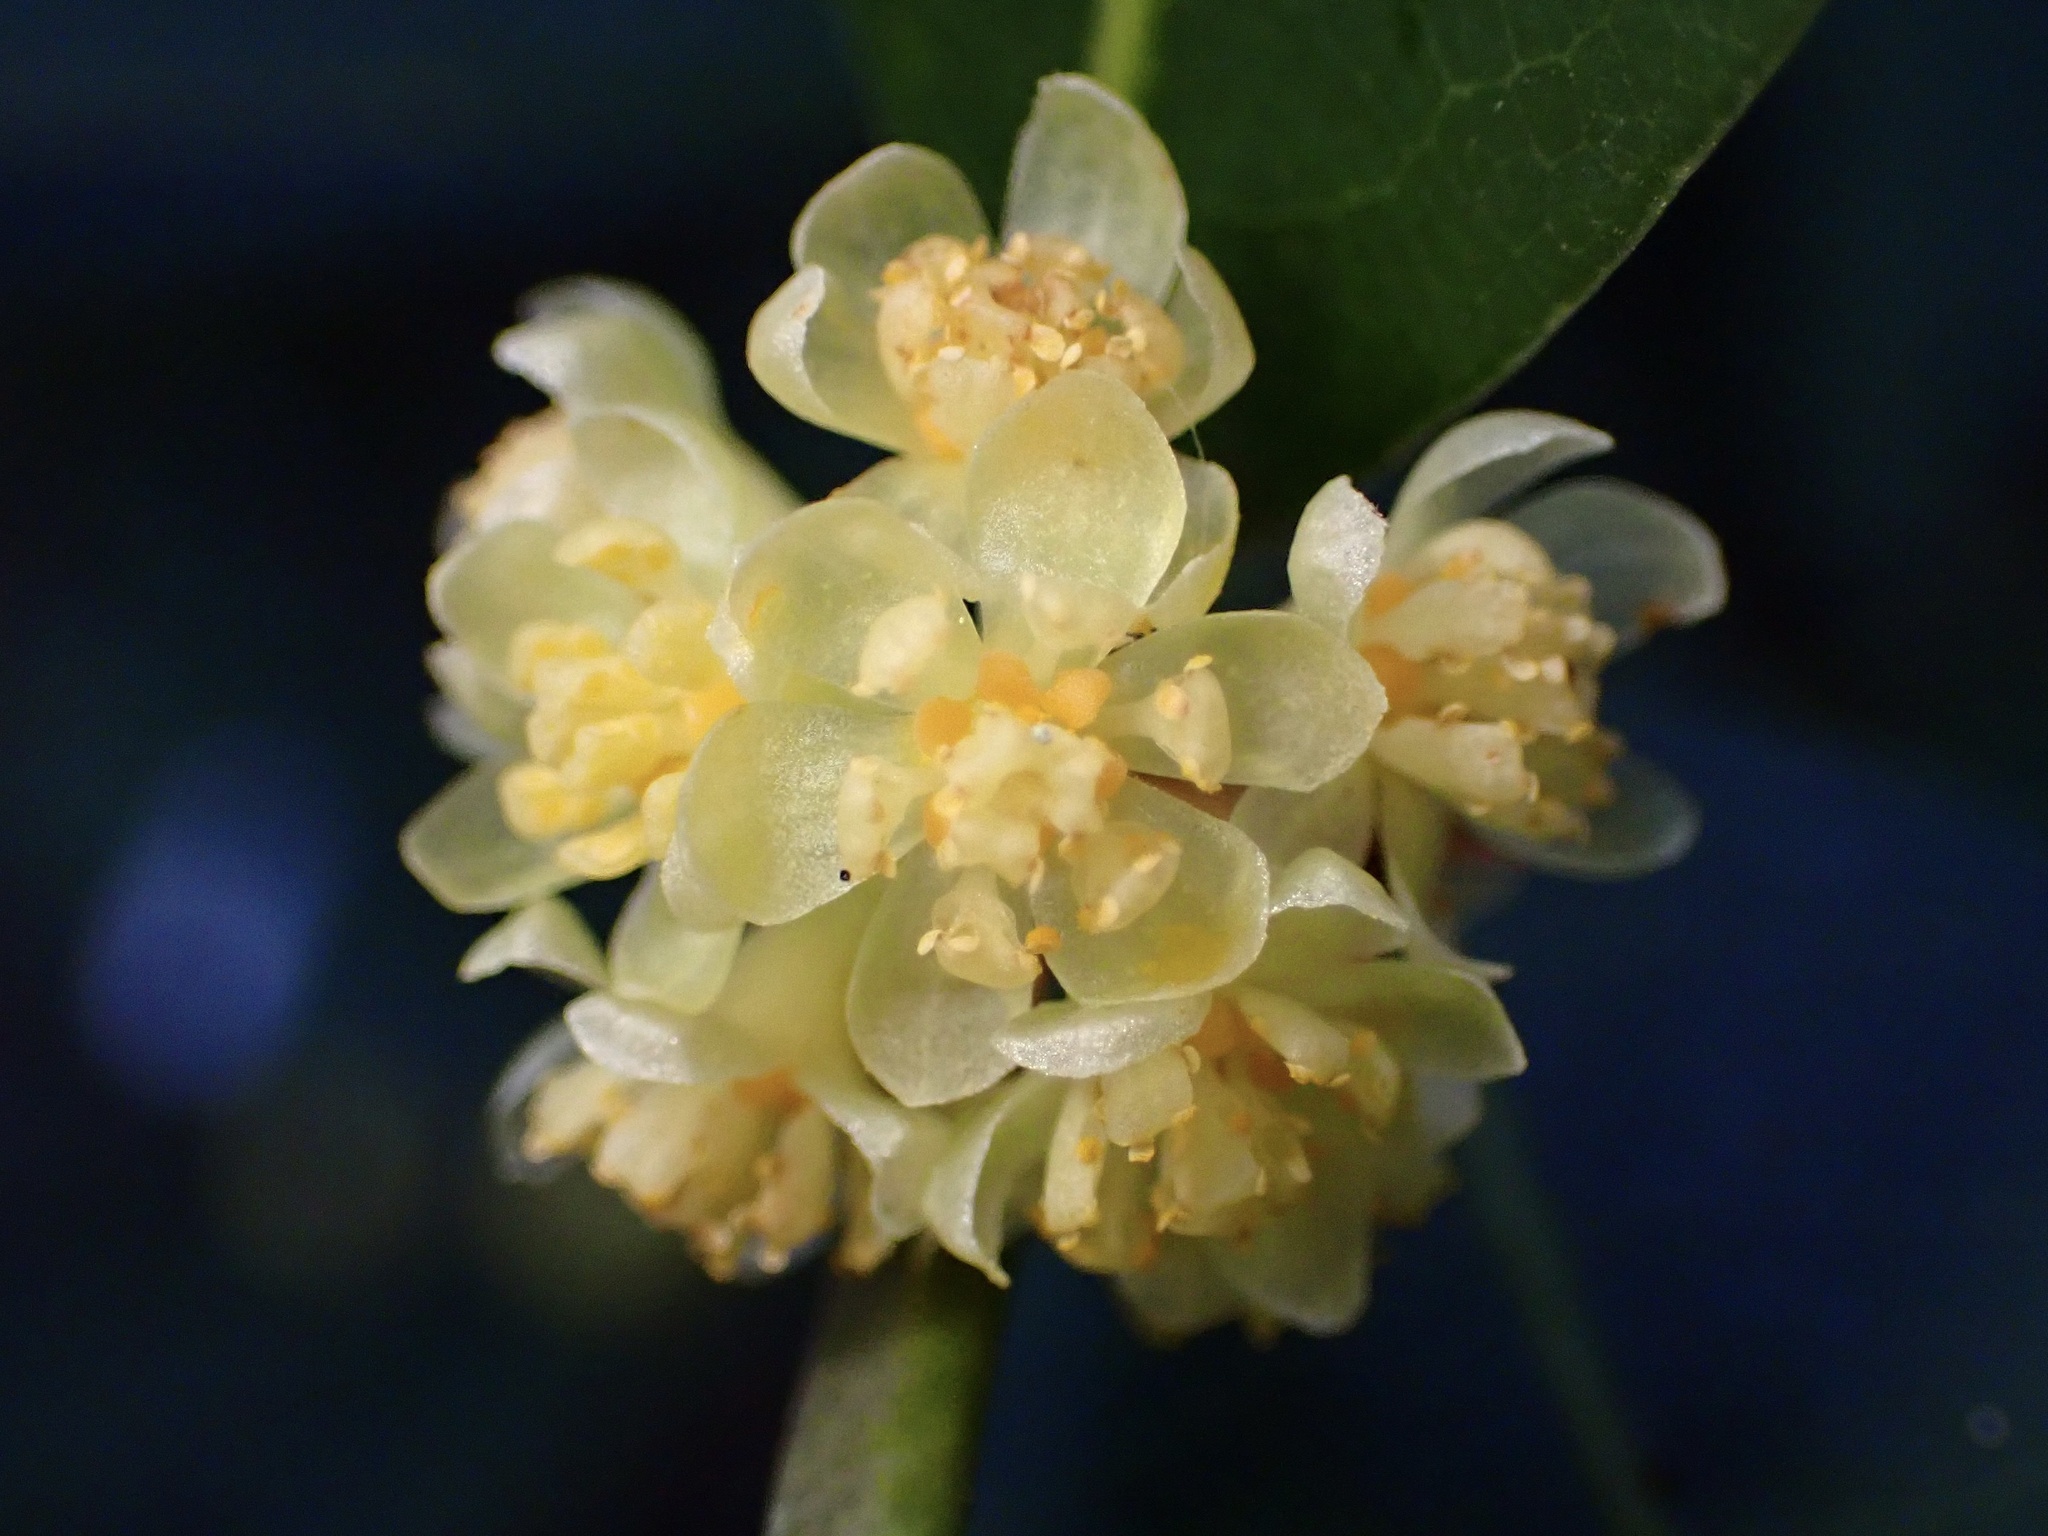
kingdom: Plantae
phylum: Tracheophyta
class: Magnoliopsida
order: Laurales
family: Lauraceae
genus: Umbellularia
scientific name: Umbellularia californica
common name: California bay
